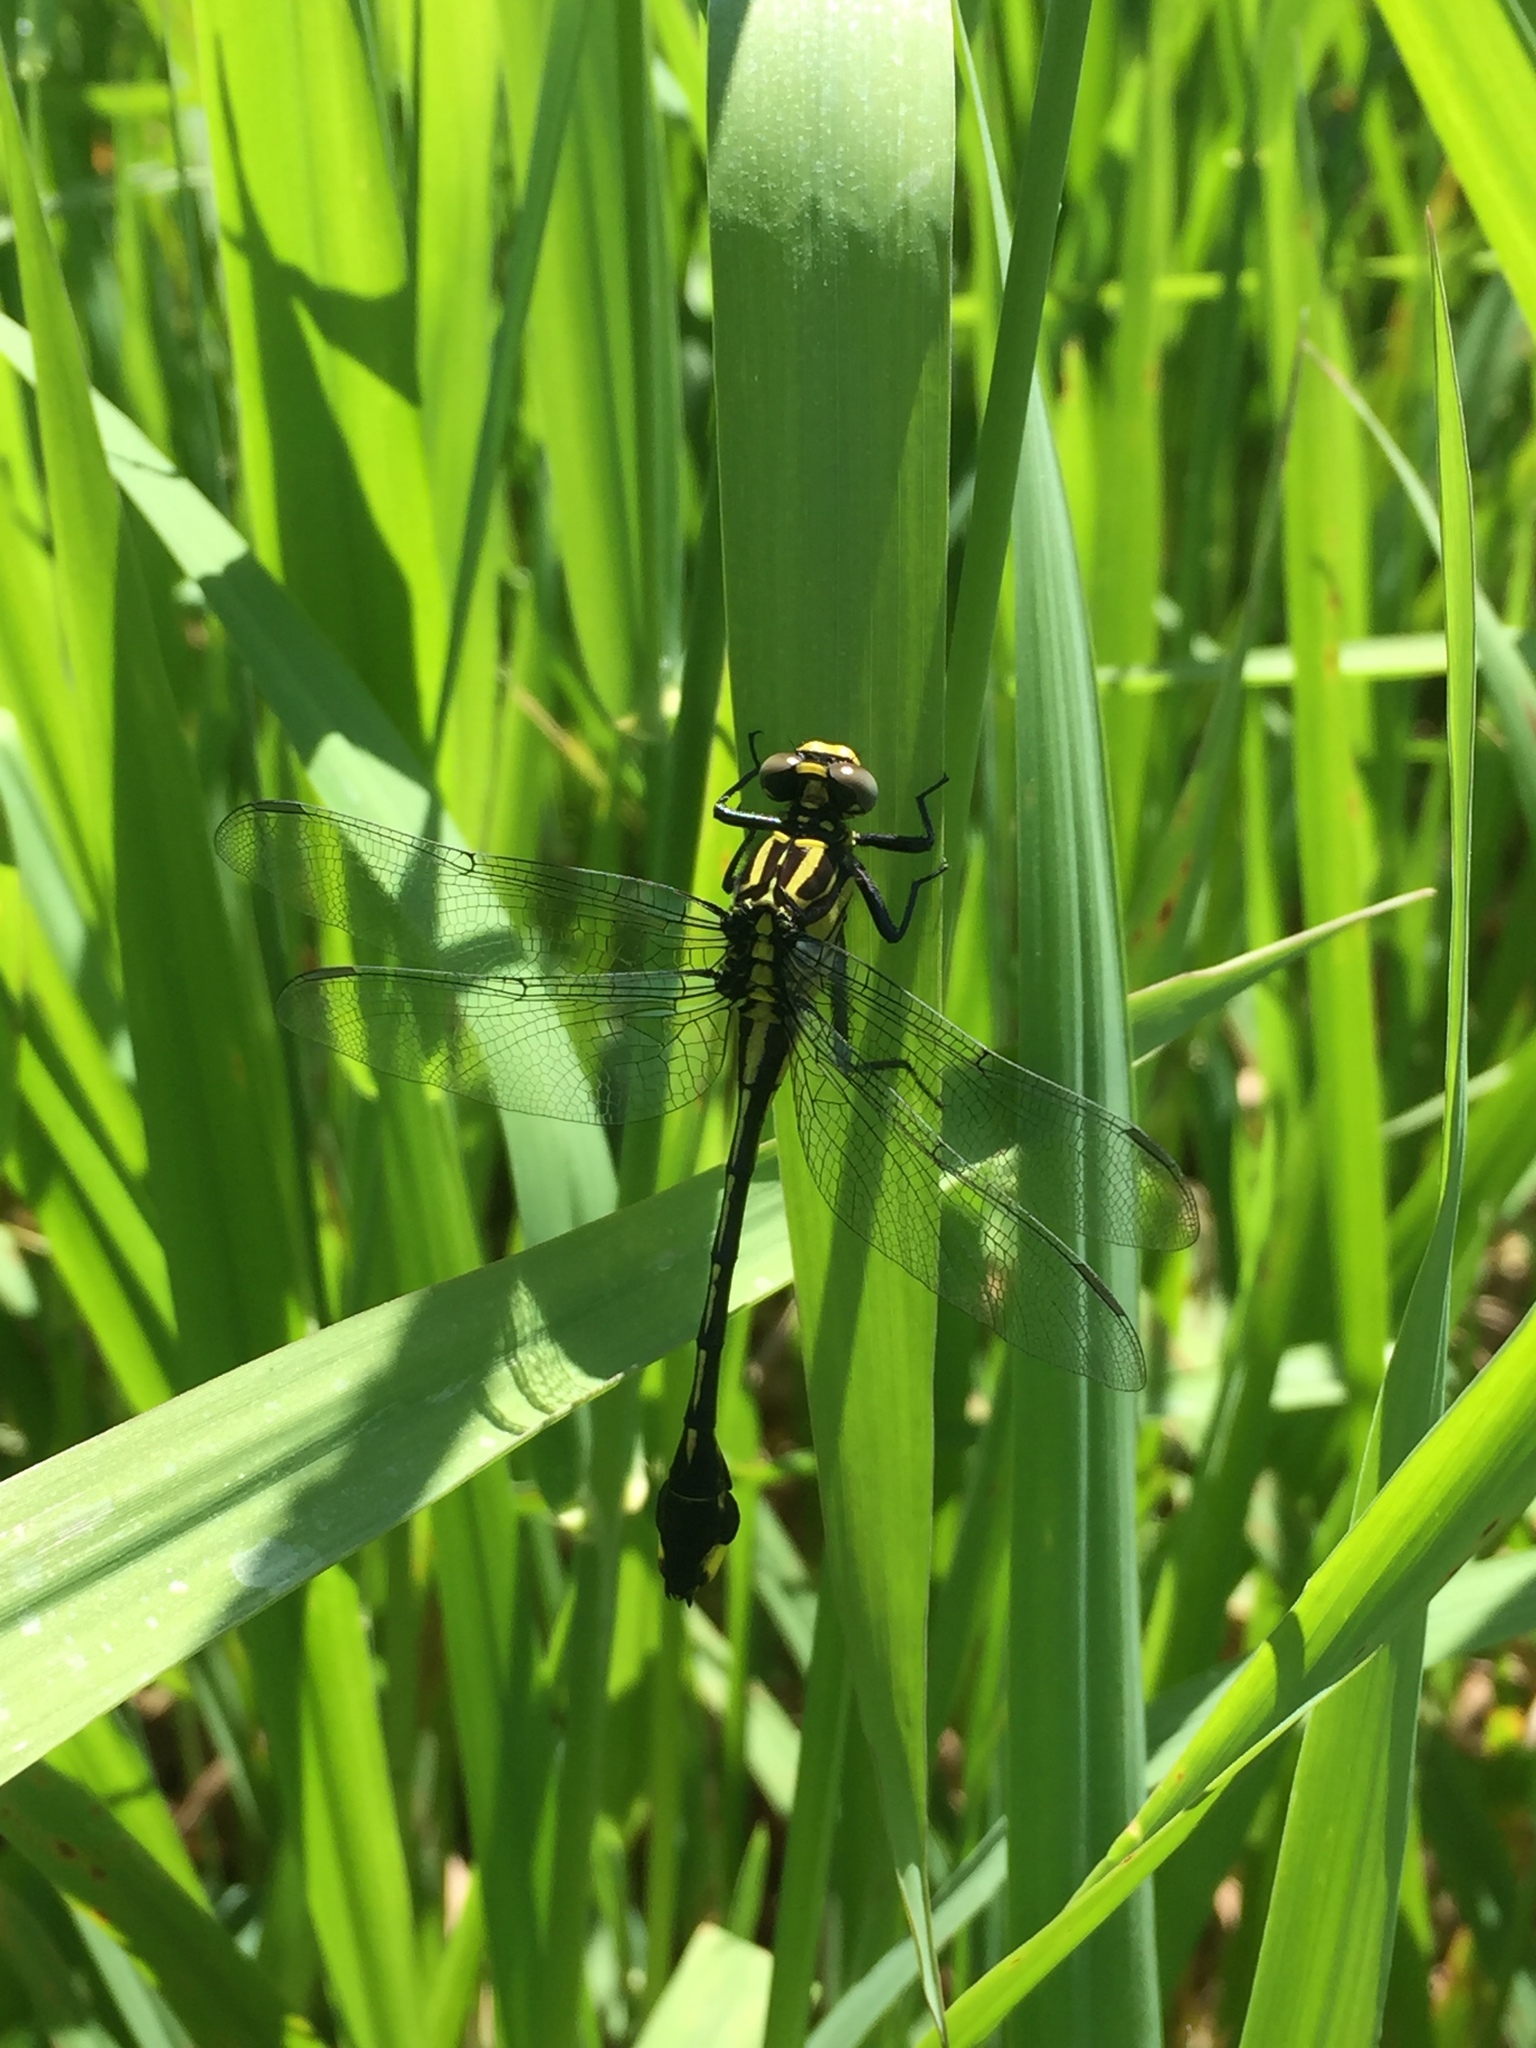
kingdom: Animalia
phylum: Arthropoda
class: Insecta
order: Odonata
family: Gomphidae
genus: Gomphurus
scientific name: Gomphurus vastus
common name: Cobra clubtail
